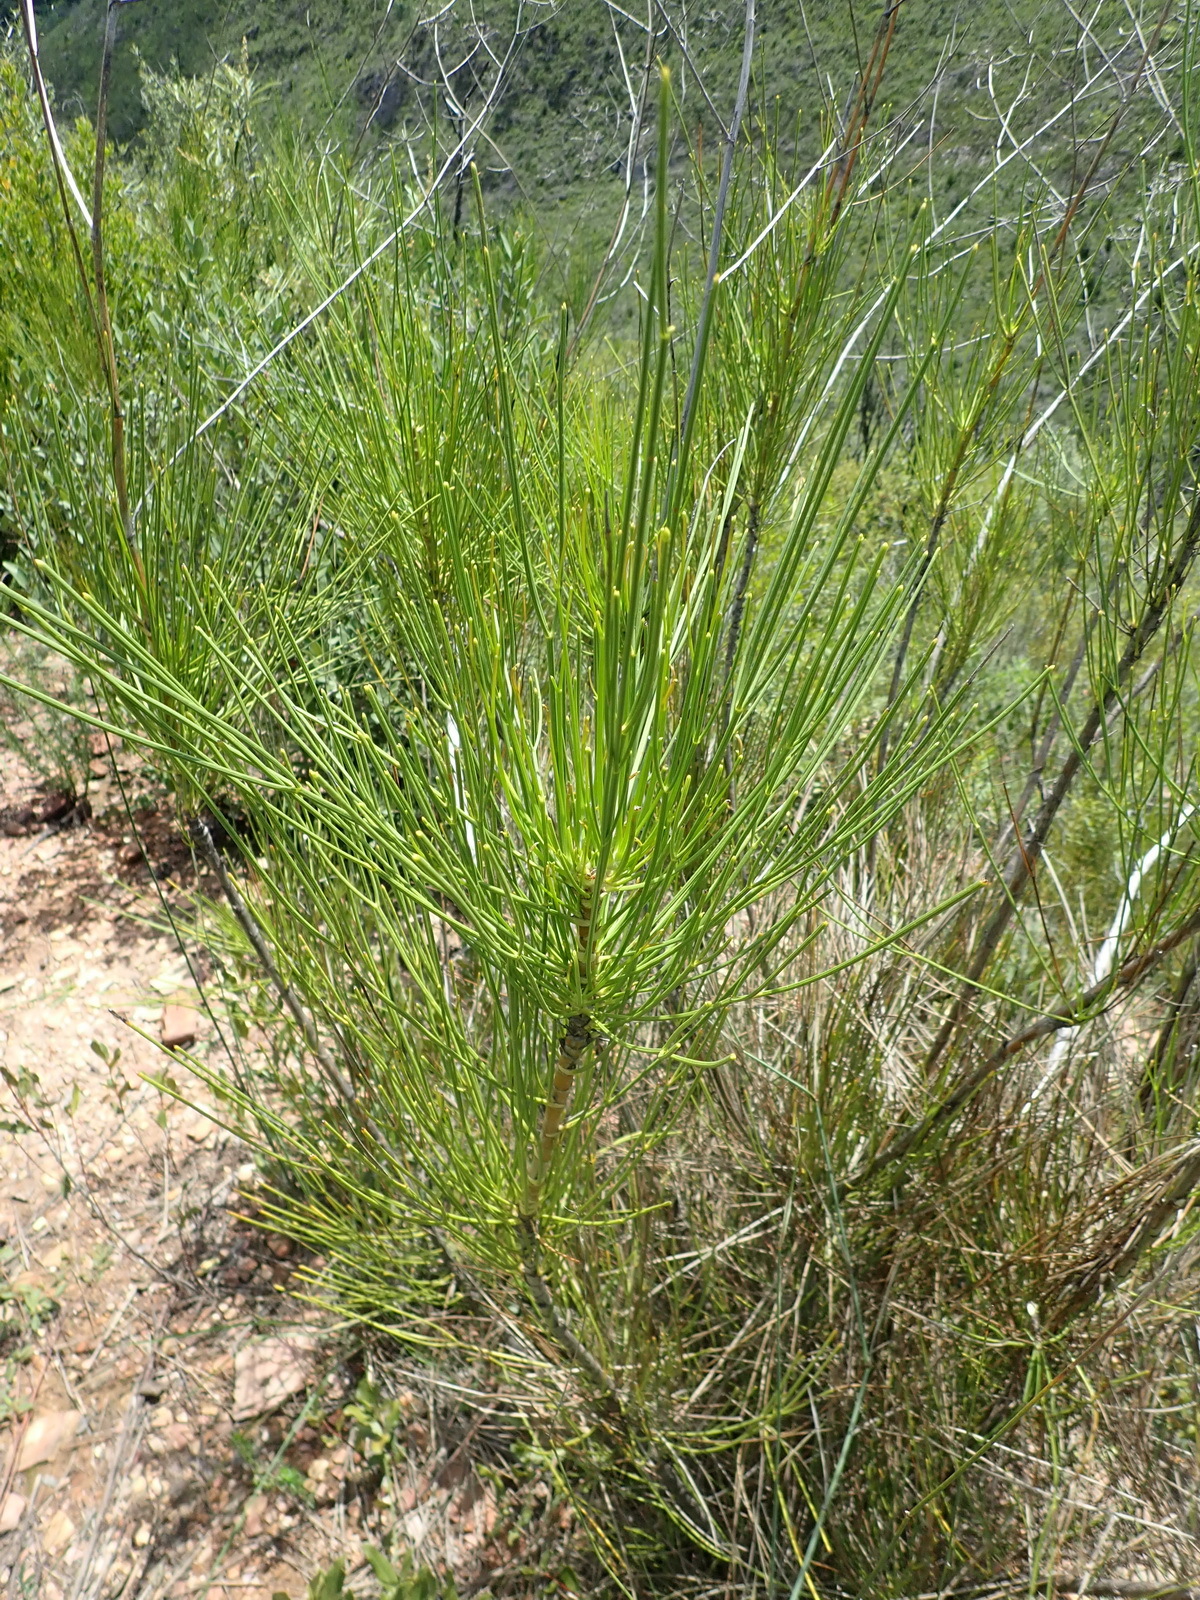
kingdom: Plantae
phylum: Tracheophyta
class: Magnoliopsida
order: Apiales
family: Apiaceae
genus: Anginon
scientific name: Anginon difforme
